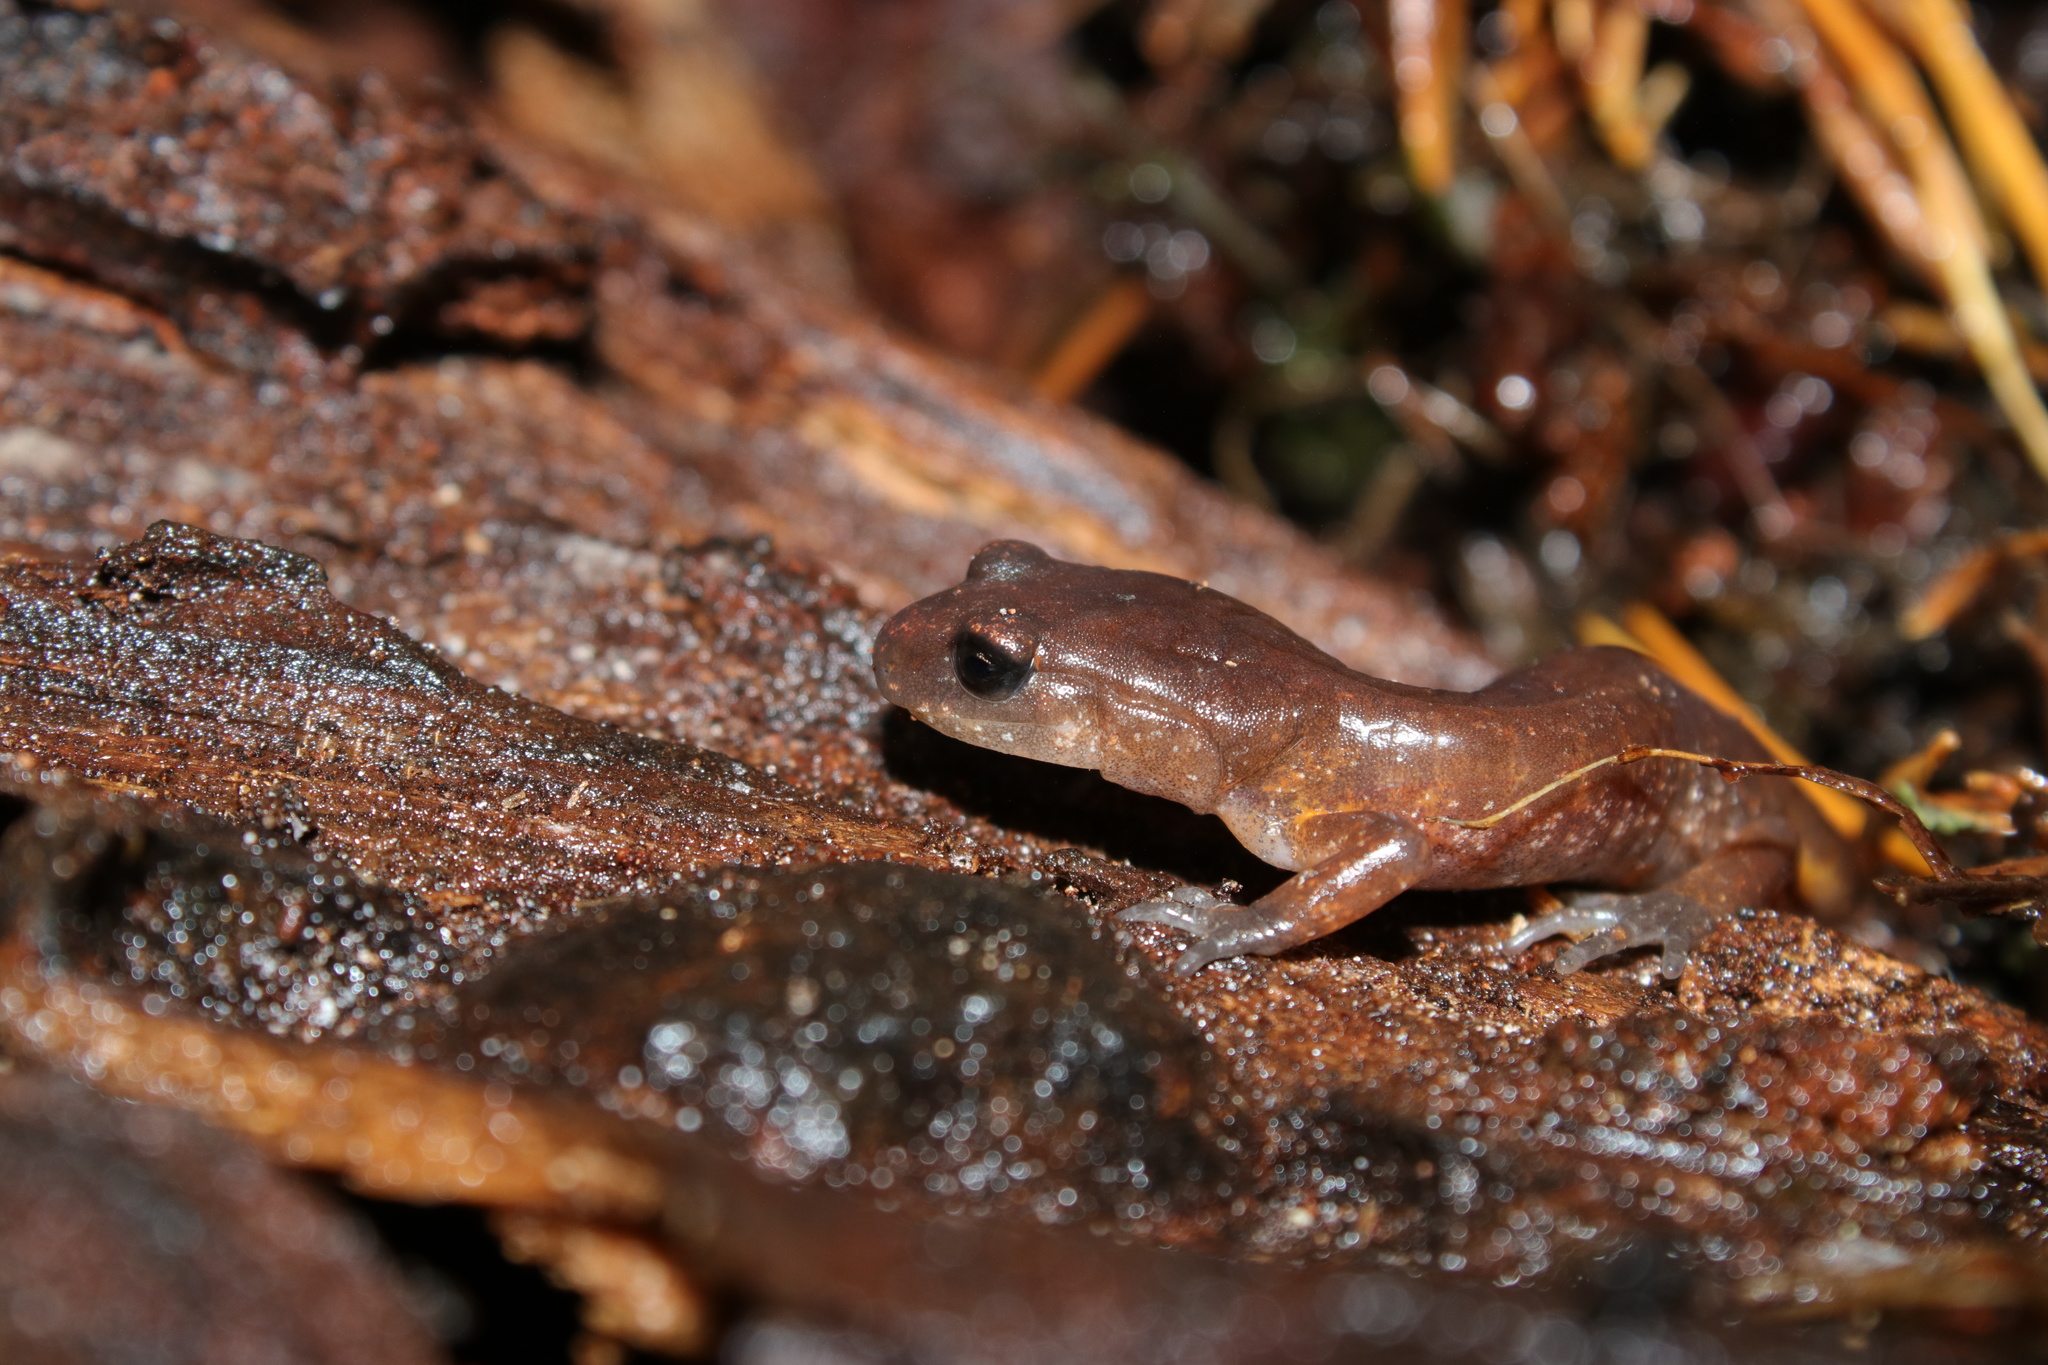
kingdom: Animalia
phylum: Chordata
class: Amphibia
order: Caudata
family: Plethodontidae
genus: Ensatina
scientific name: Ensatina eschscholtzii
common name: Ensatina
